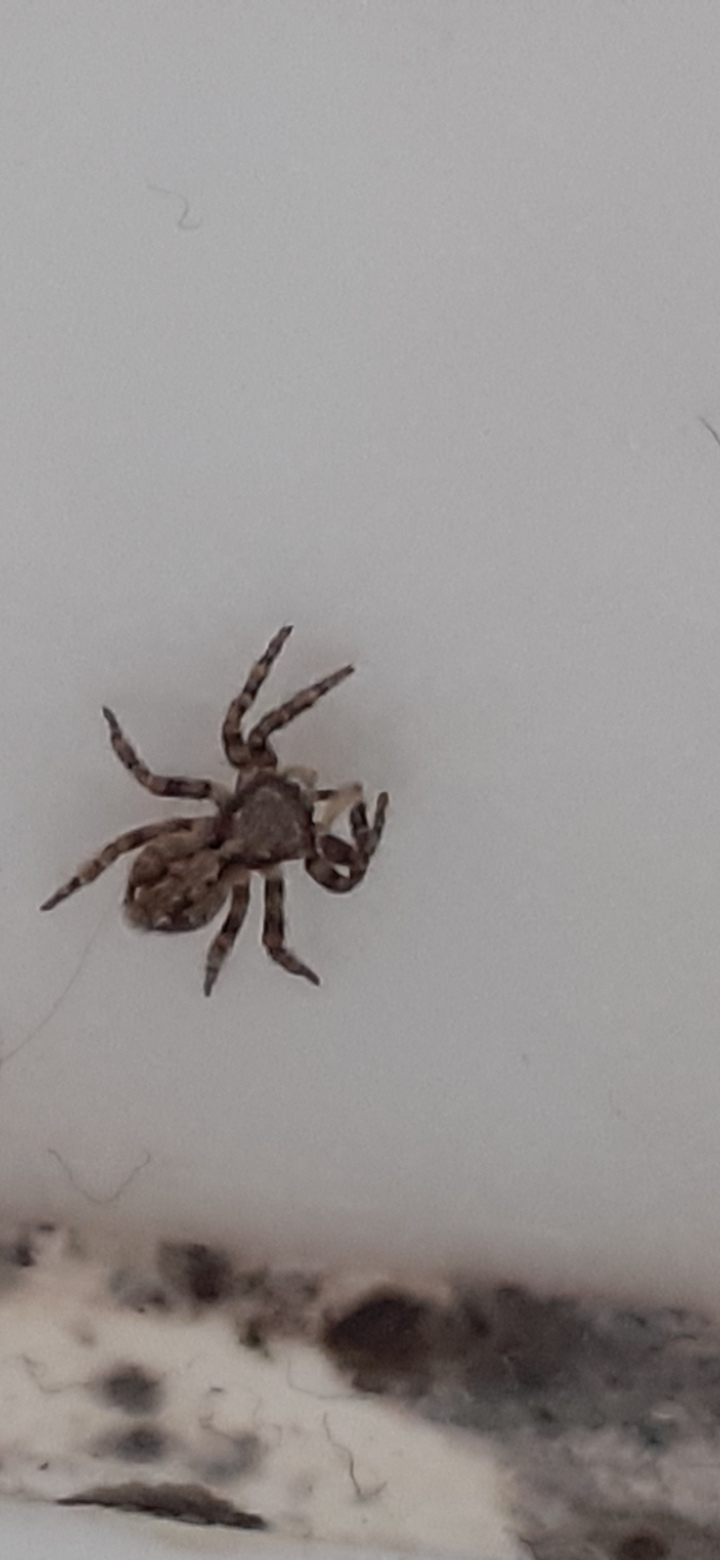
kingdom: Animalia
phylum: Arthropoda
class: Arachnida
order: Araneae
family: Salticidae
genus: Pseudeuophrys
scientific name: Pseudeuophrys lanigera
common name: Jumping spider
